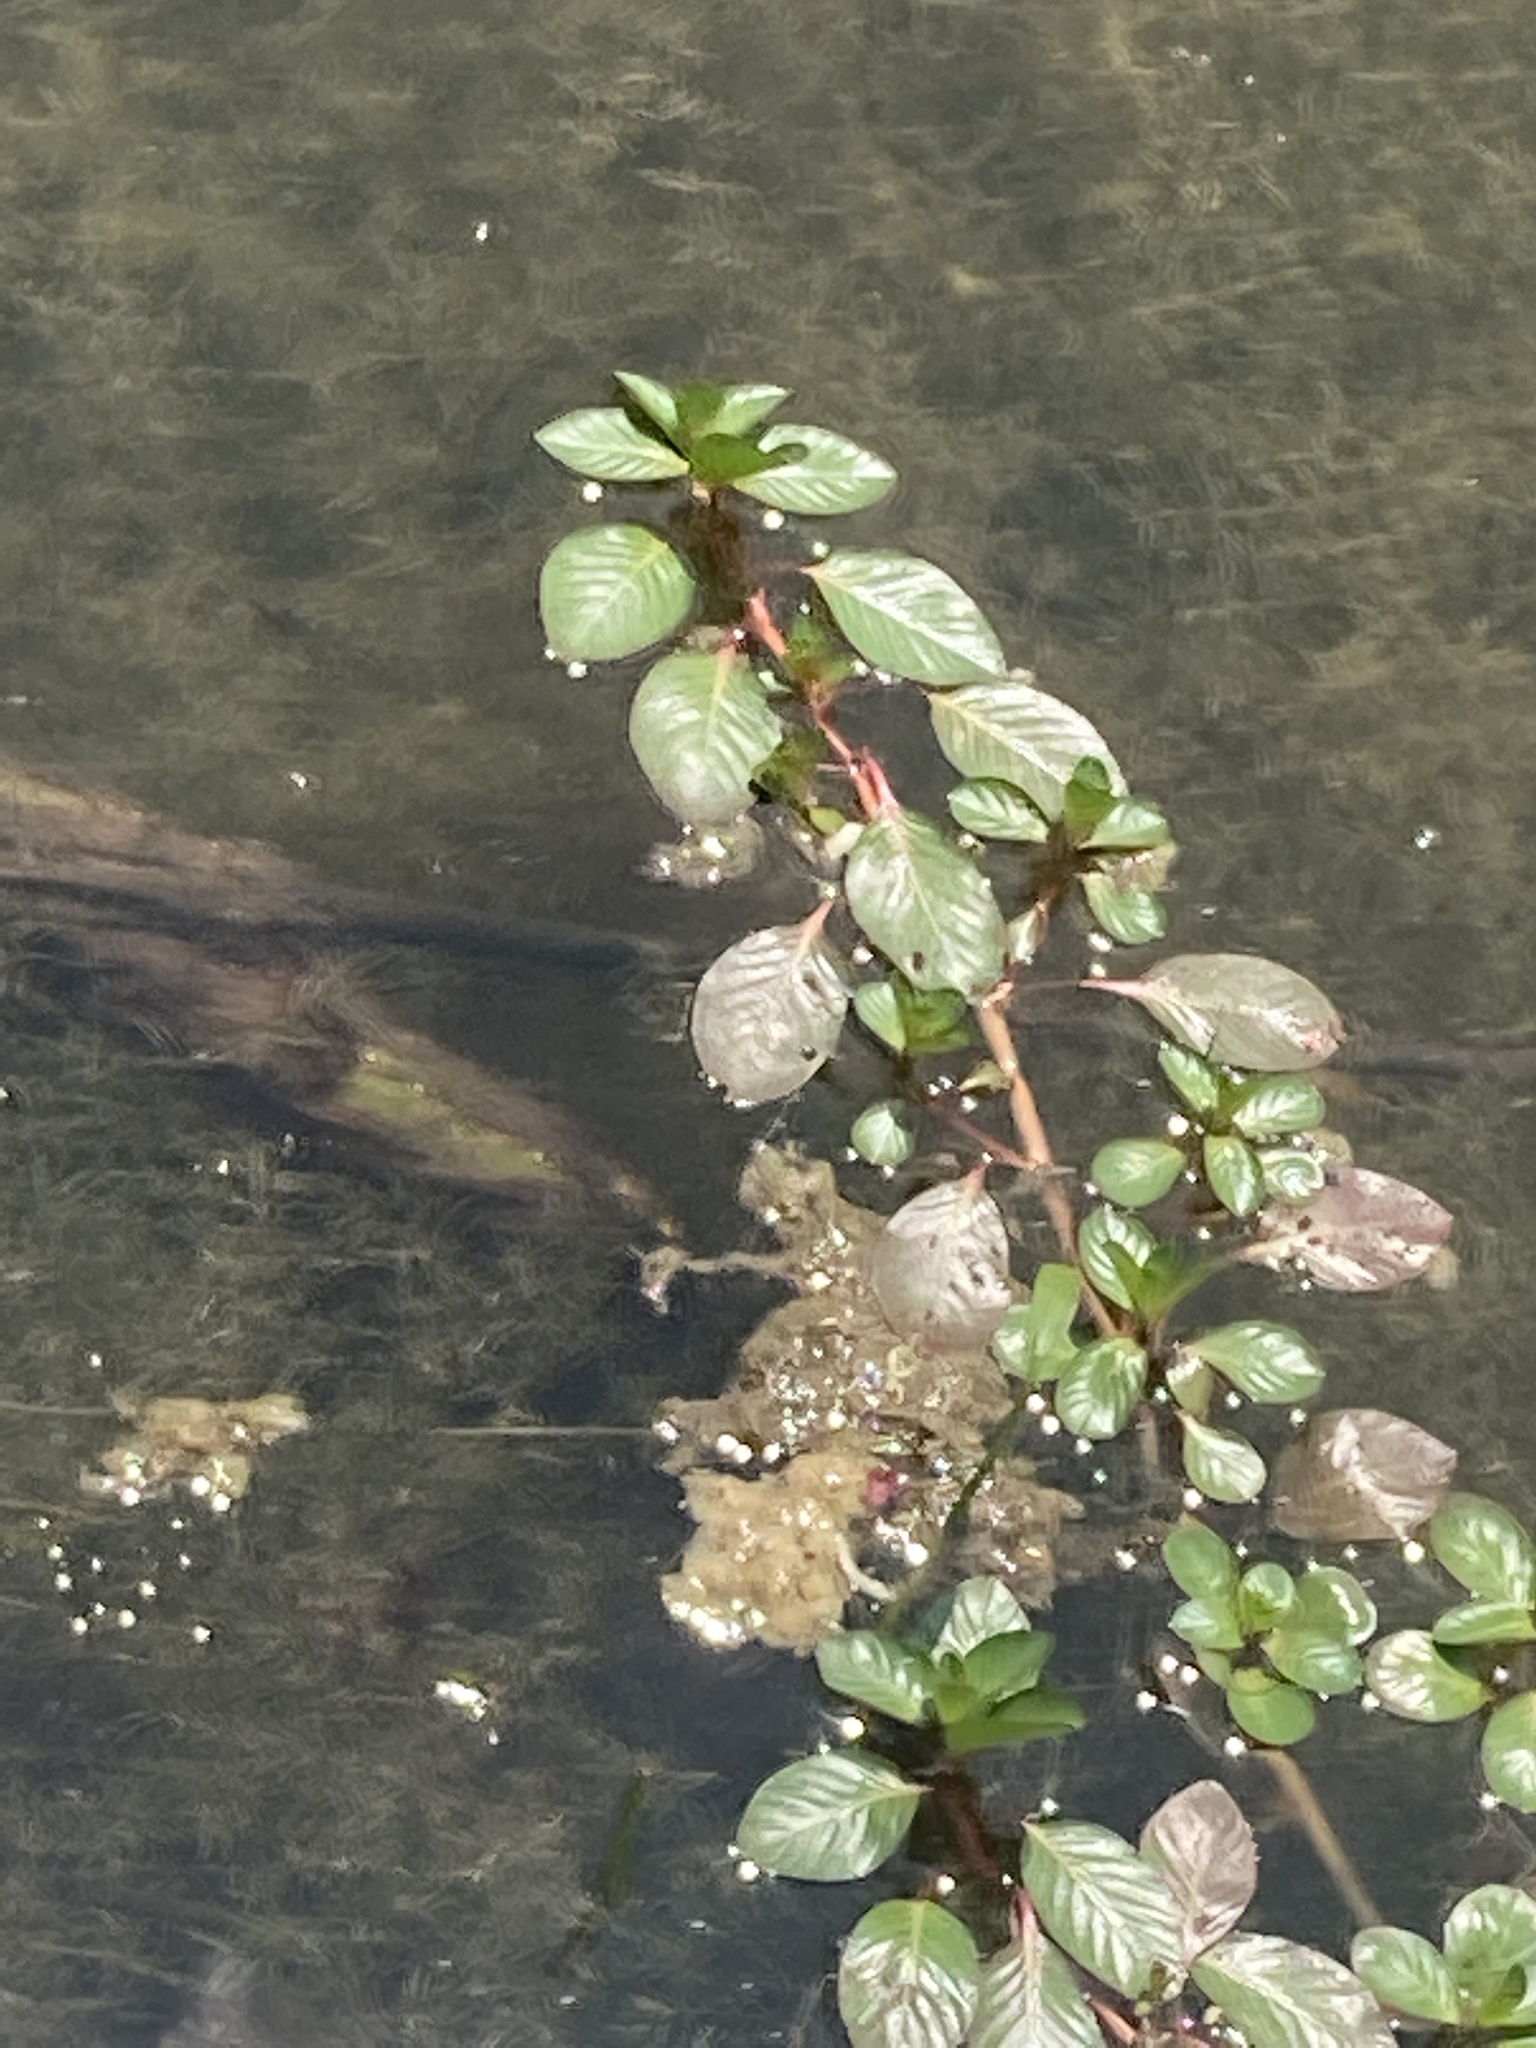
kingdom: Plantae
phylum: Tracheophyta
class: Magnoliopsida
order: Myrtales
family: Onagraceae
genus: Ludwigia
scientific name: Ludwigia peploides
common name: Floating primrose-willow
